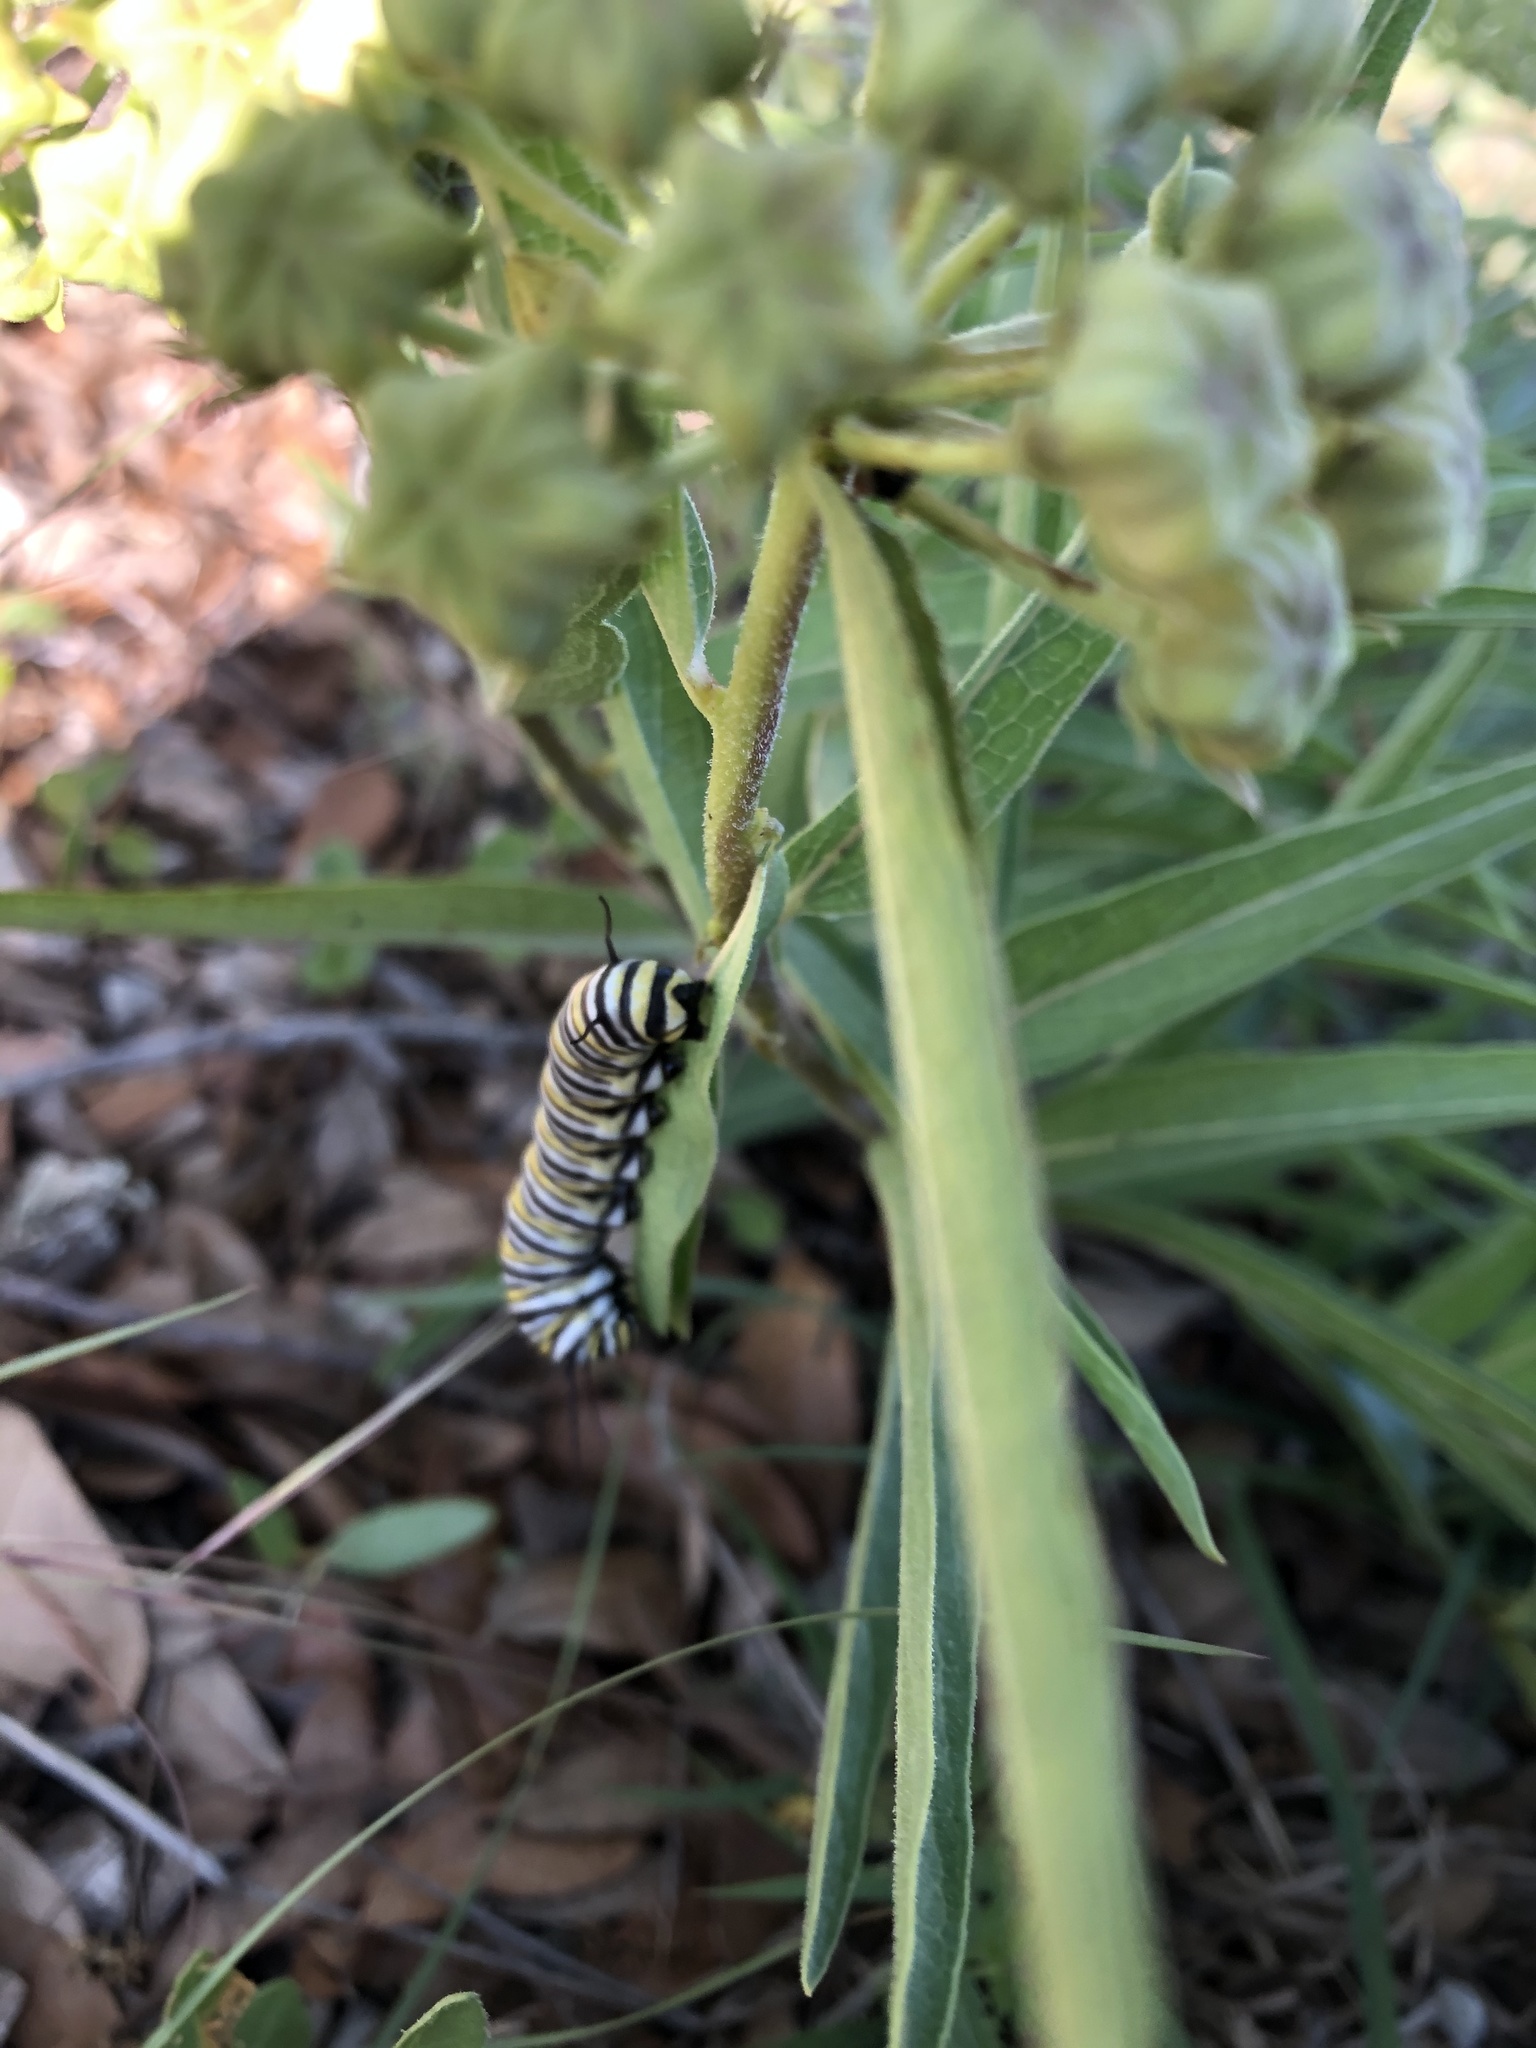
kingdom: Animalia
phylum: Arthropoda
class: Insecta
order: Lepidoptera
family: Nymphalidae
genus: Danaus
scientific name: Danaus plexippus
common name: Monarch
